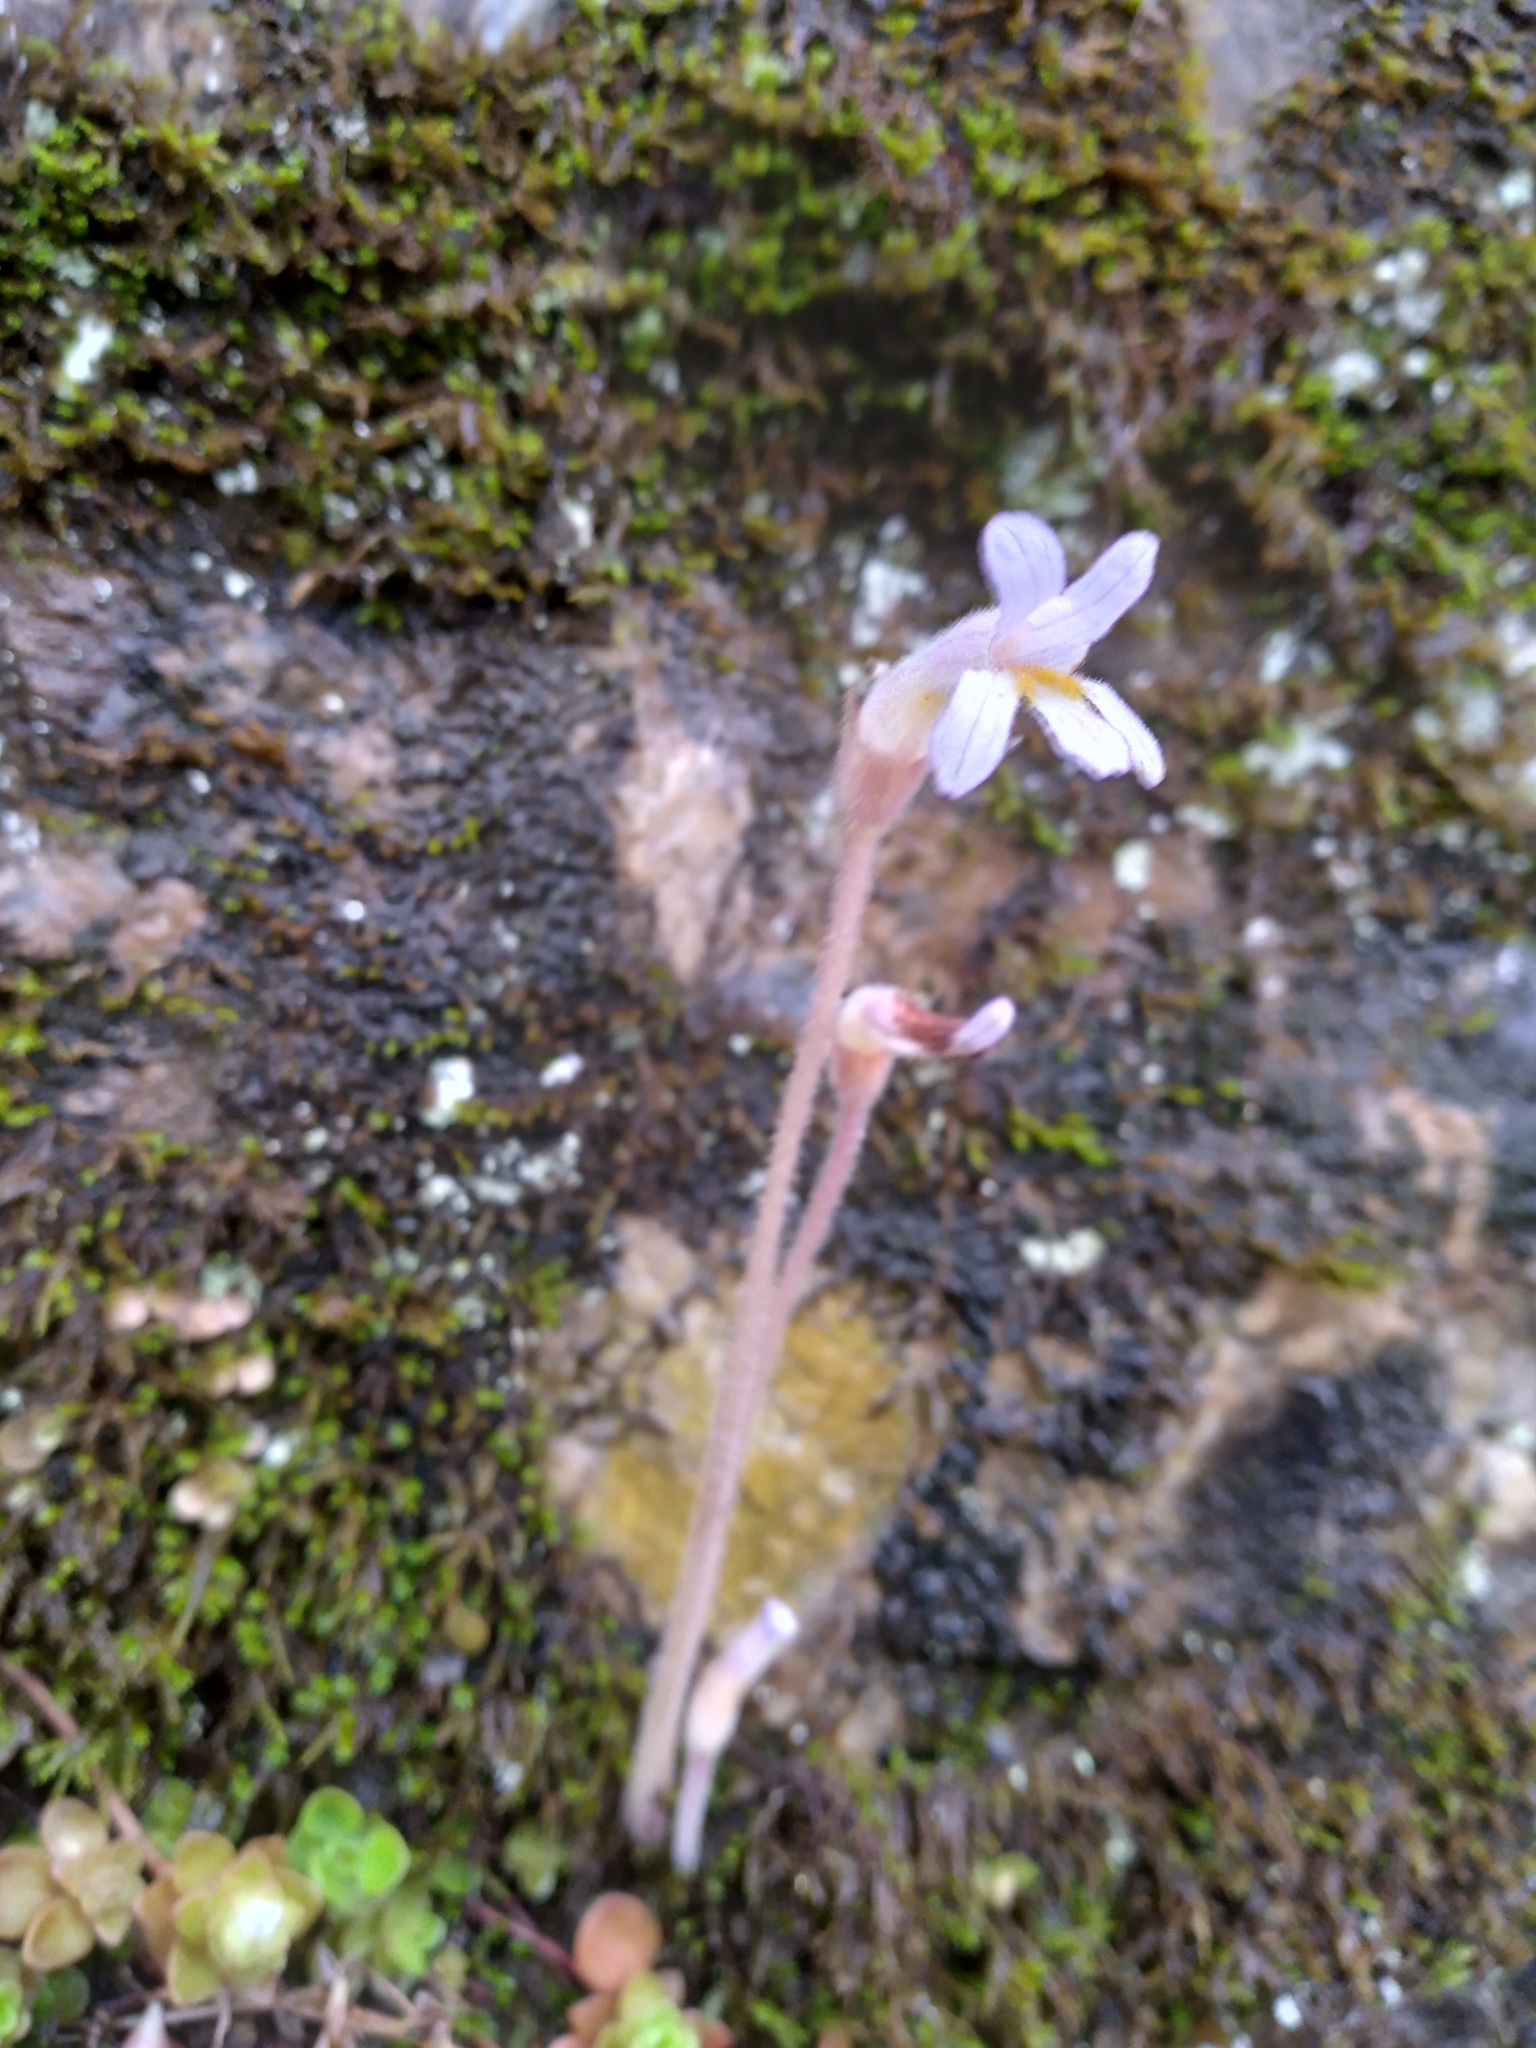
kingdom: Plantae
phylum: Tracheophyta
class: Magnoliopsida
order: Lamiales
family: Orobanchaceae
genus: Aphyllon
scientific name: Aphyllon uniflorum
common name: One-flowered broomrape
